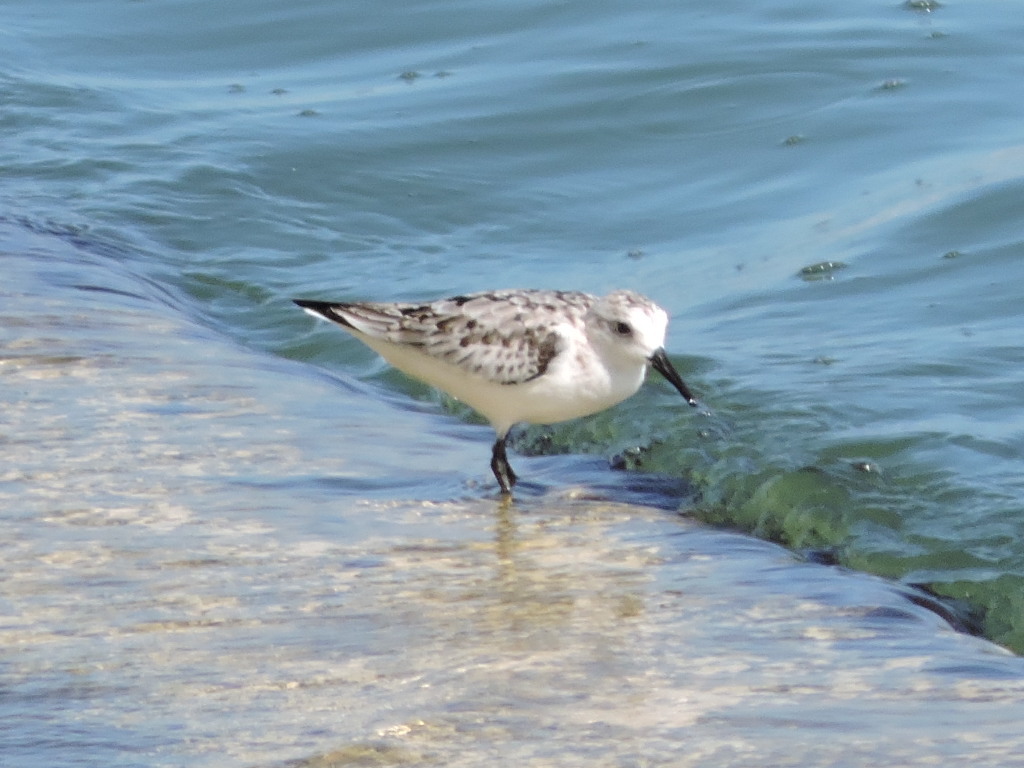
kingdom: Animalia
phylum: Chordata
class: Aves
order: Charadriiformes
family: Scolopacidae
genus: Calidris
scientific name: Calidris alba
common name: Sanderling
